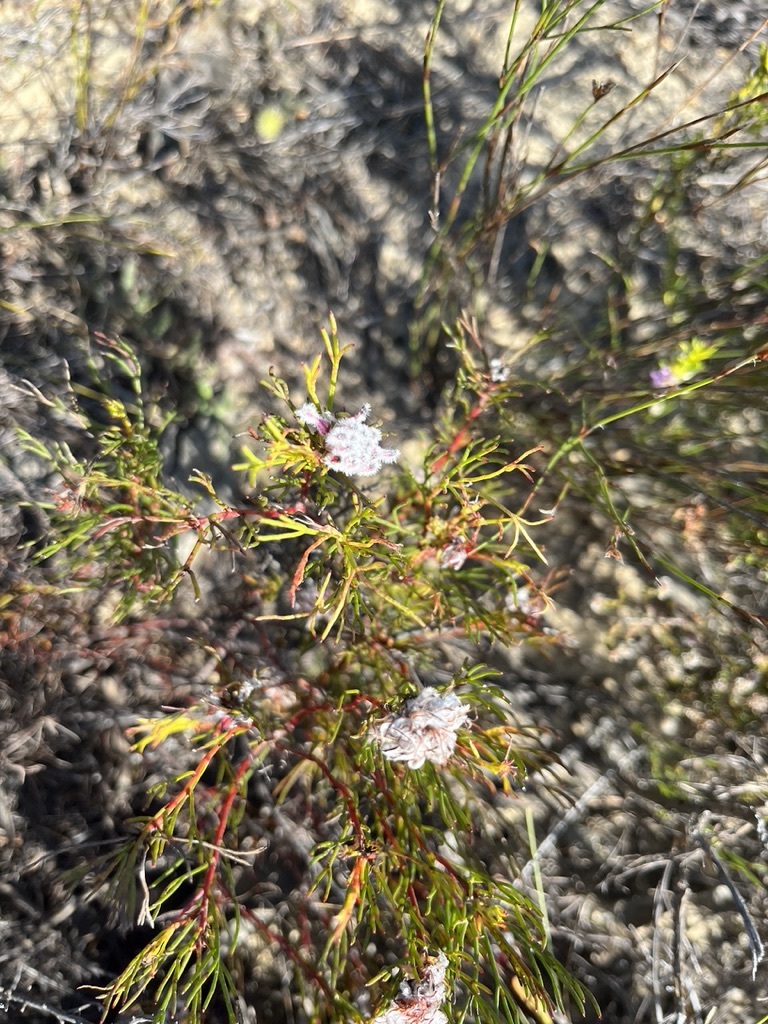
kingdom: Plantae
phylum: Tracheophyta
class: Magnoliopsida
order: Proteales
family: Proteaceae
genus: Serruria
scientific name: Serruria nervosa
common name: Fluted spiderhead
